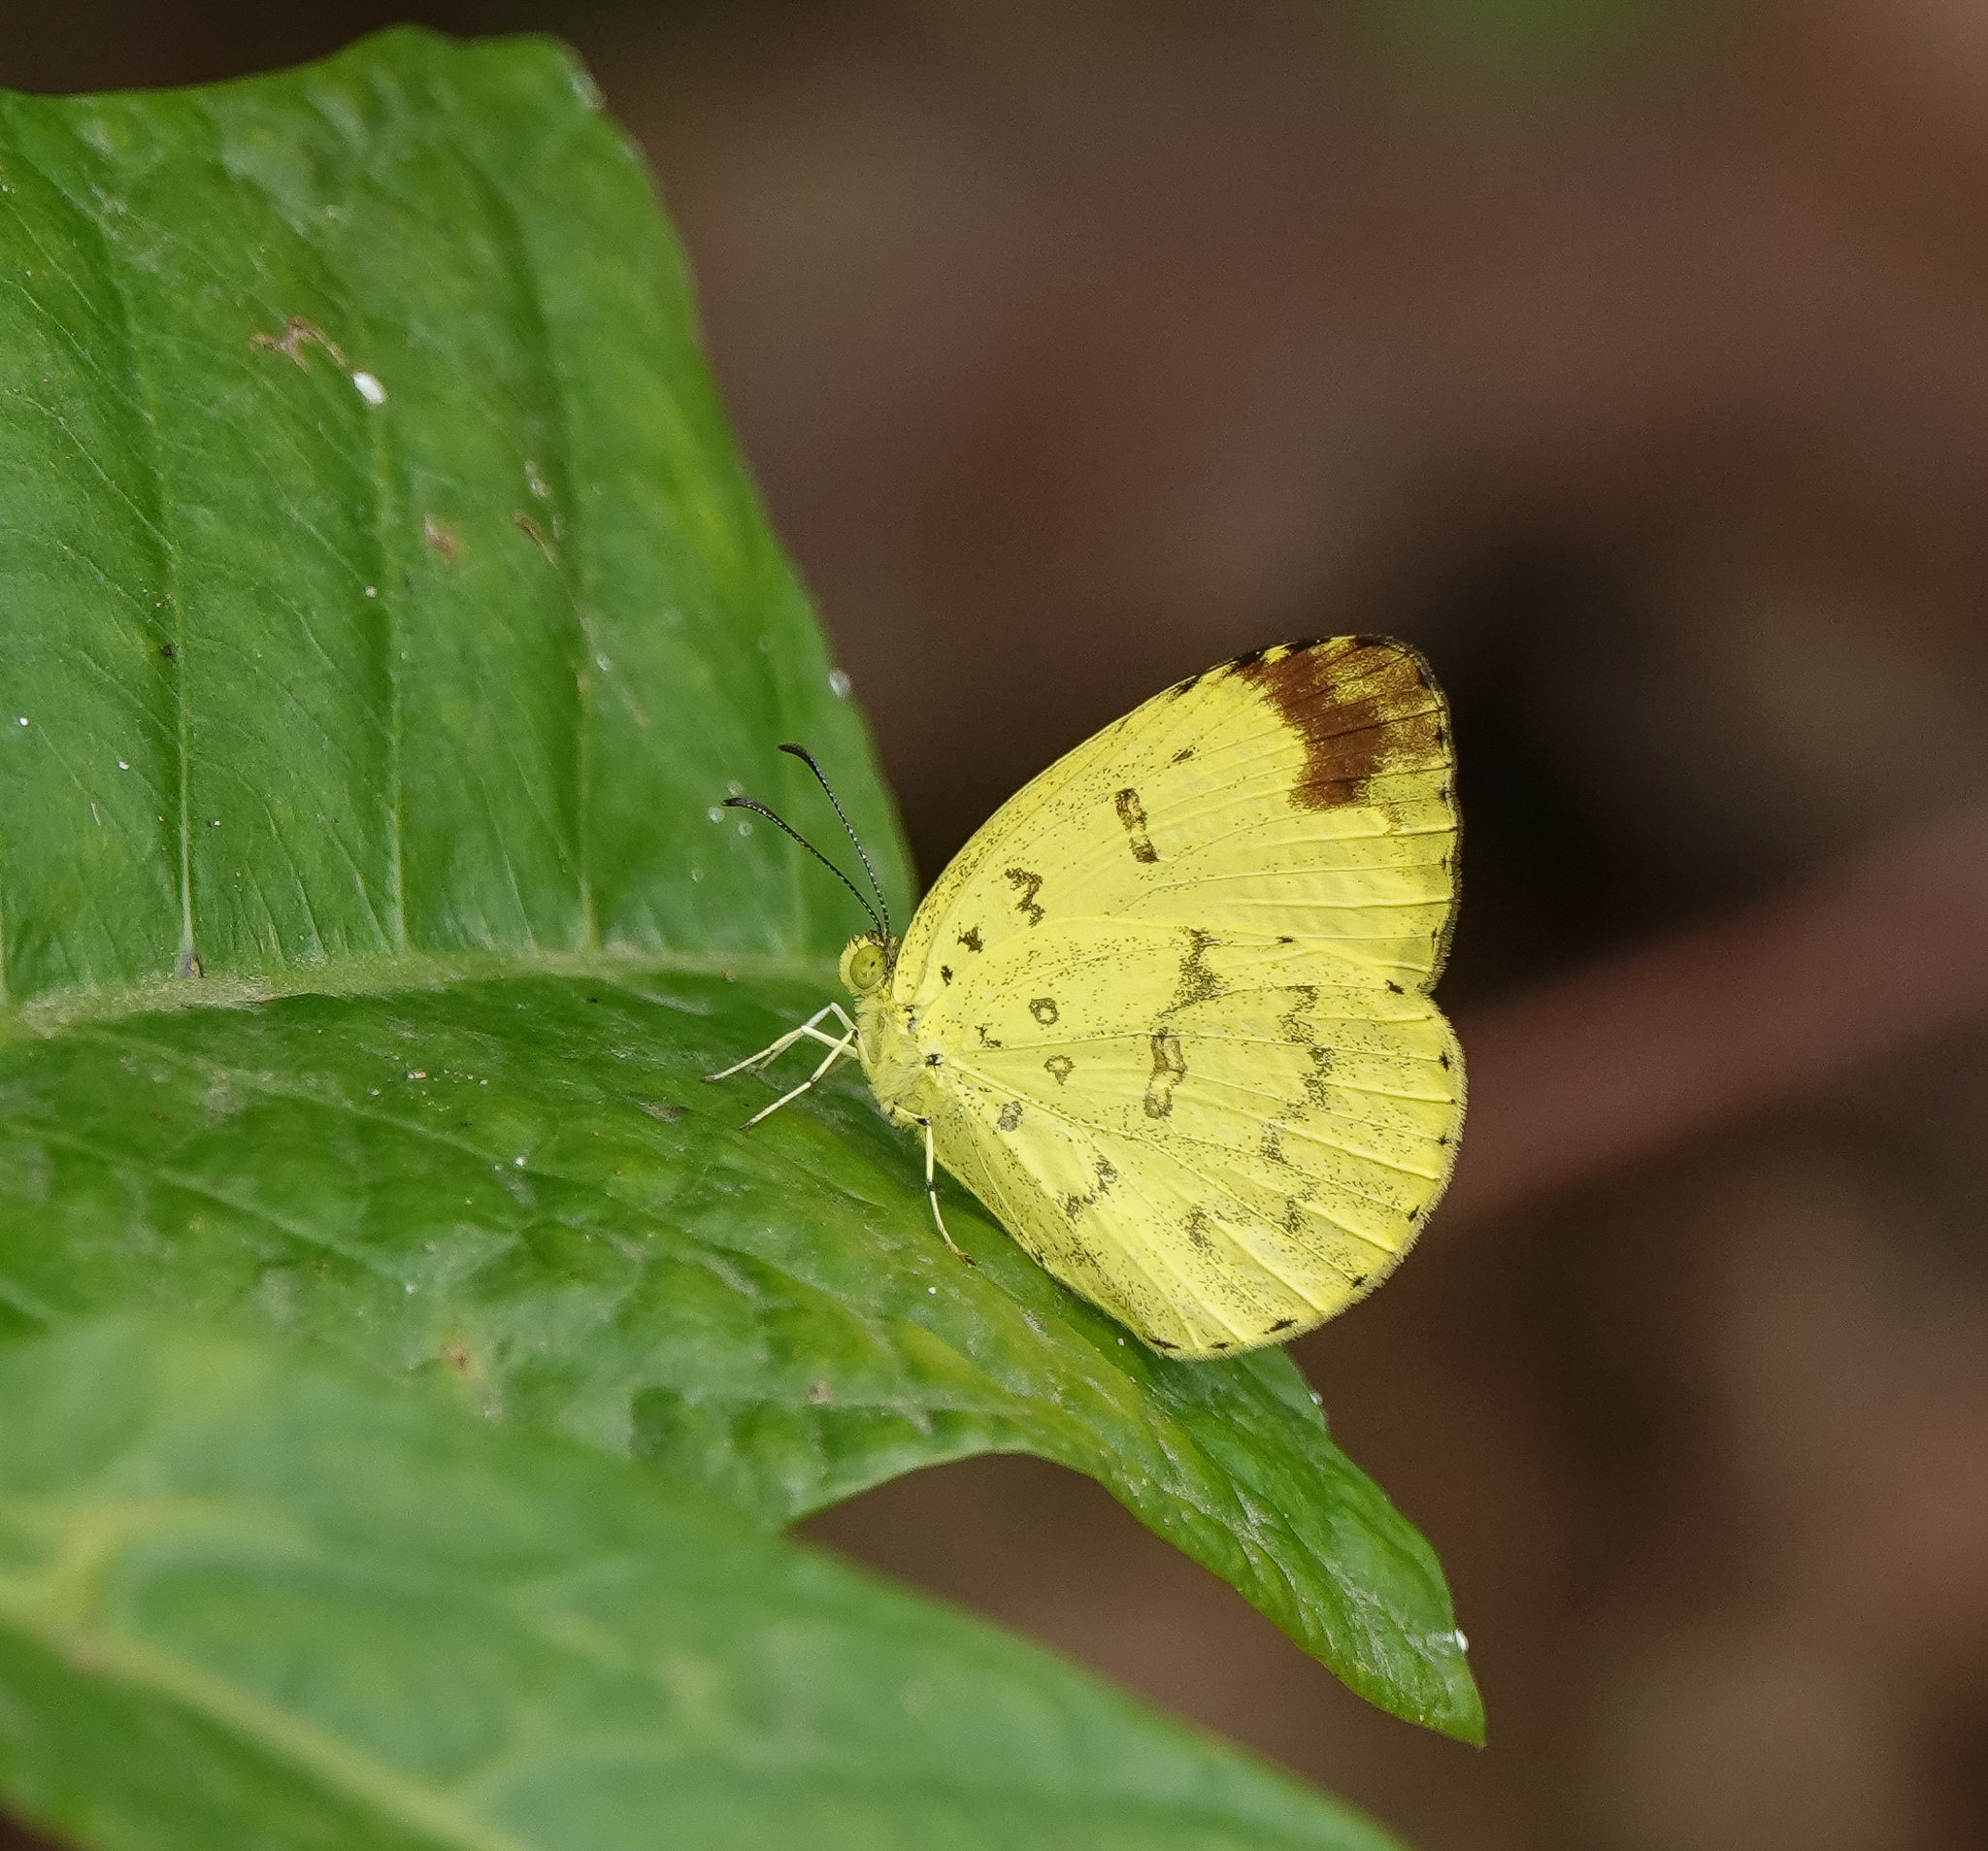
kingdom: Animalia
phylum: Arthropoda
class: Insecta
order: Lepidoptera
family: Pieridae
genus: Eurema
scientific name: Eurema blanda
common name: Three-spot grass yellow
